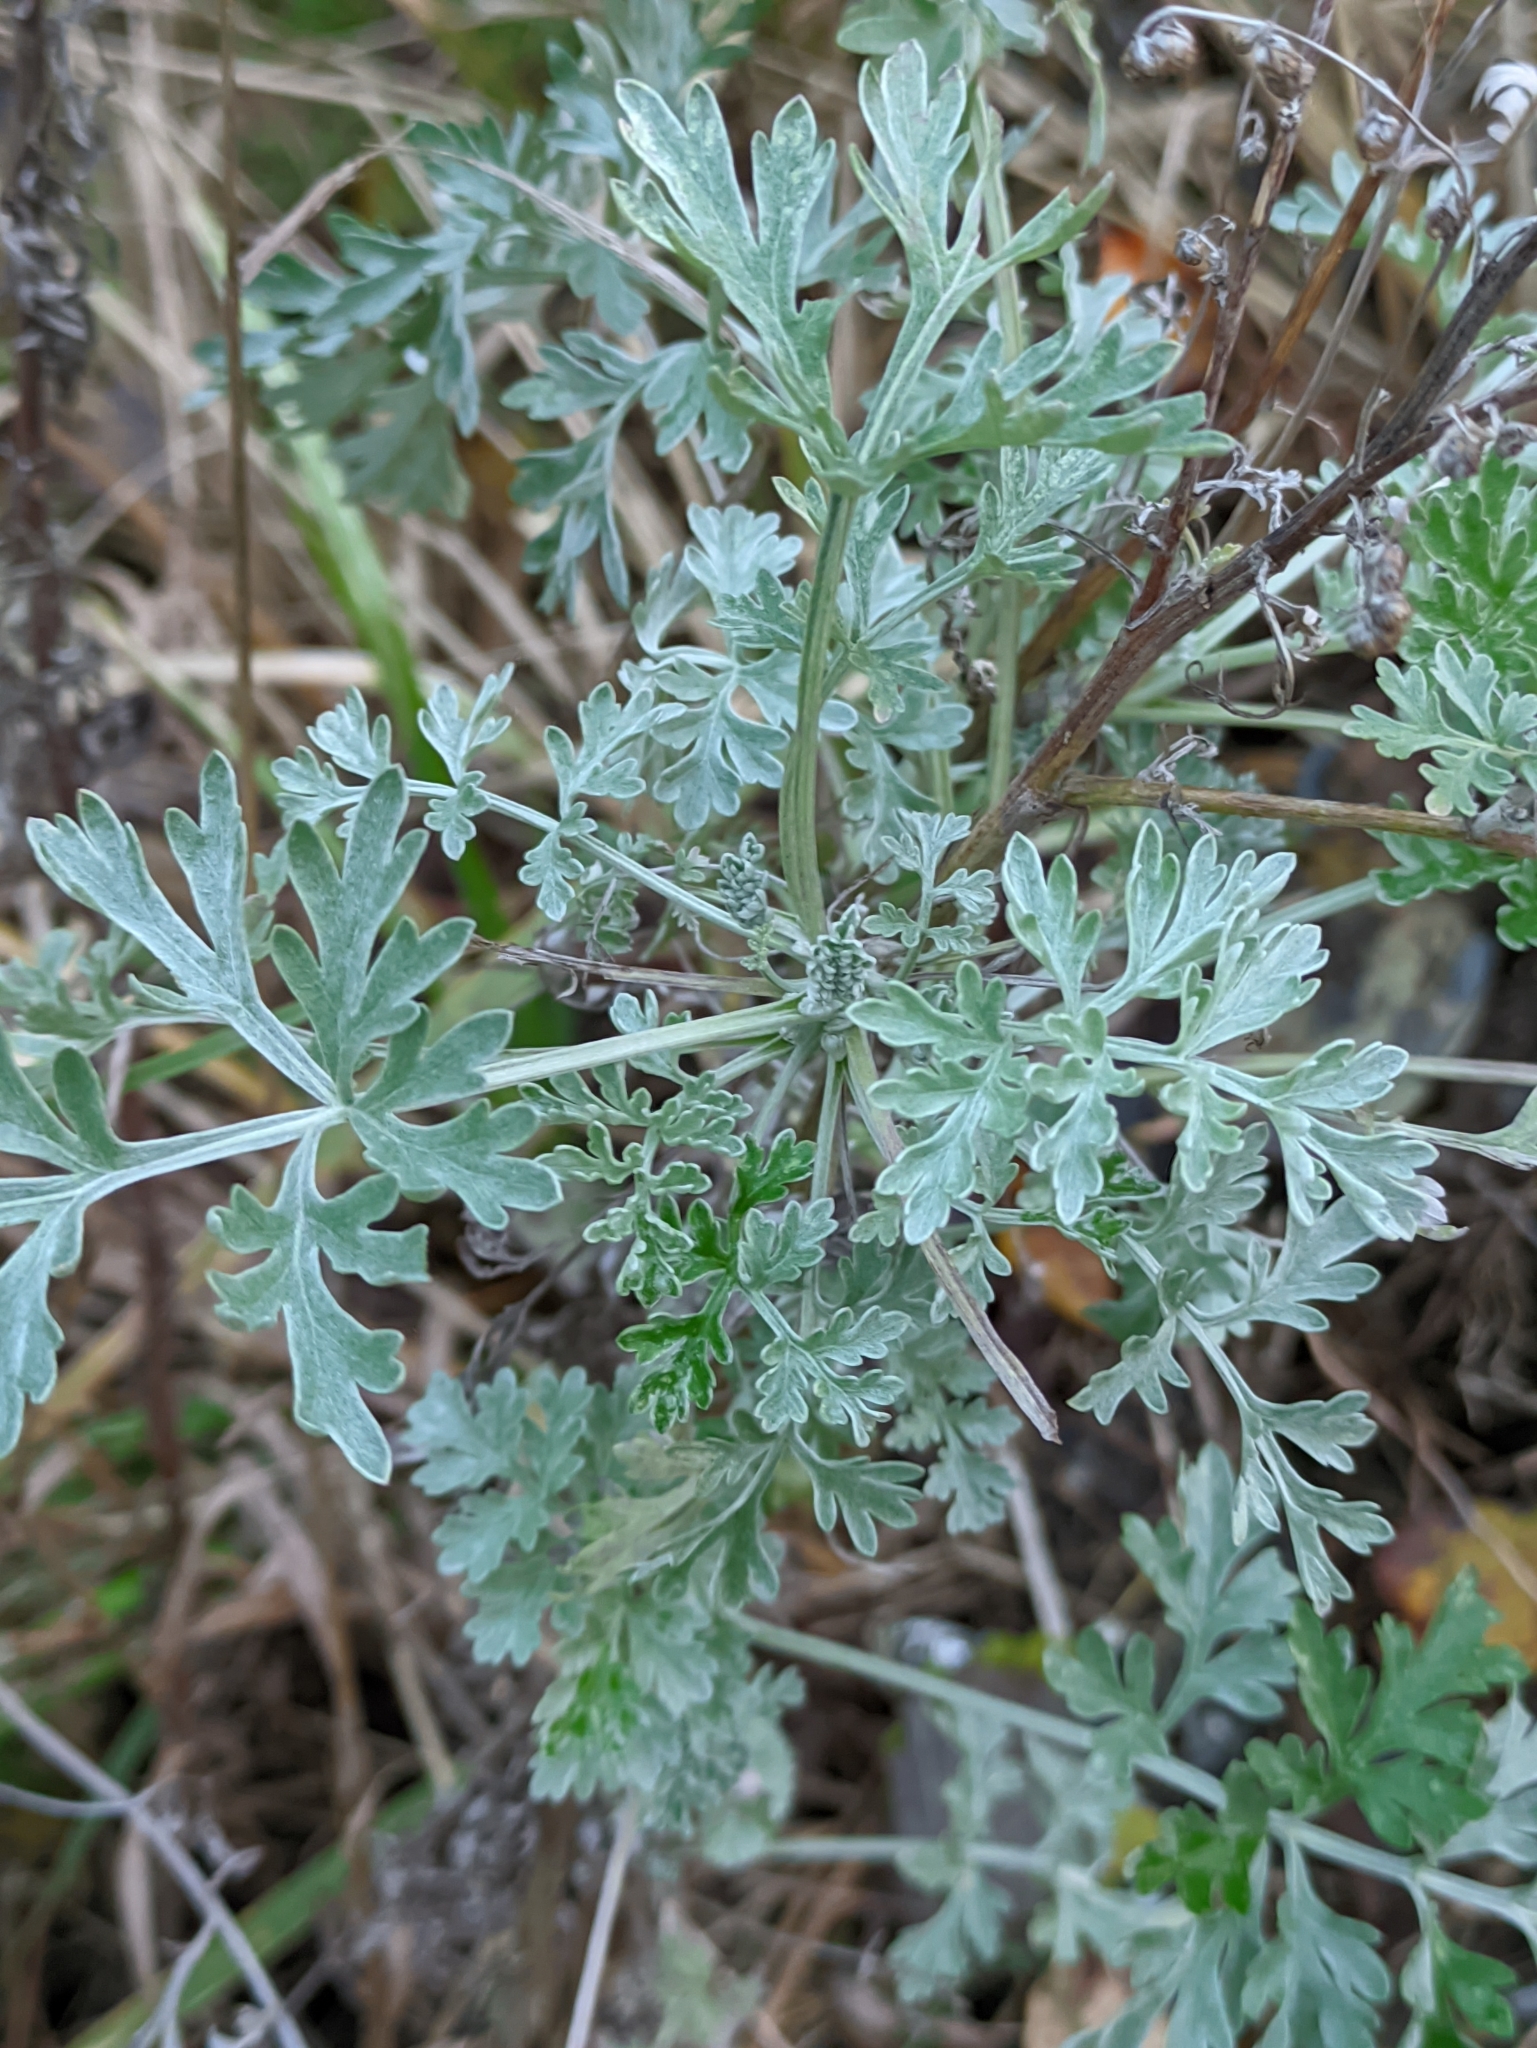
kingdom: Plantae
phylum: Tracheophyta
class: Magnoliopsida
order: Asterales
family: Asteraceae
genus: Artemisia
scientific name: Artemisia absinthium
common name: Wormwood
